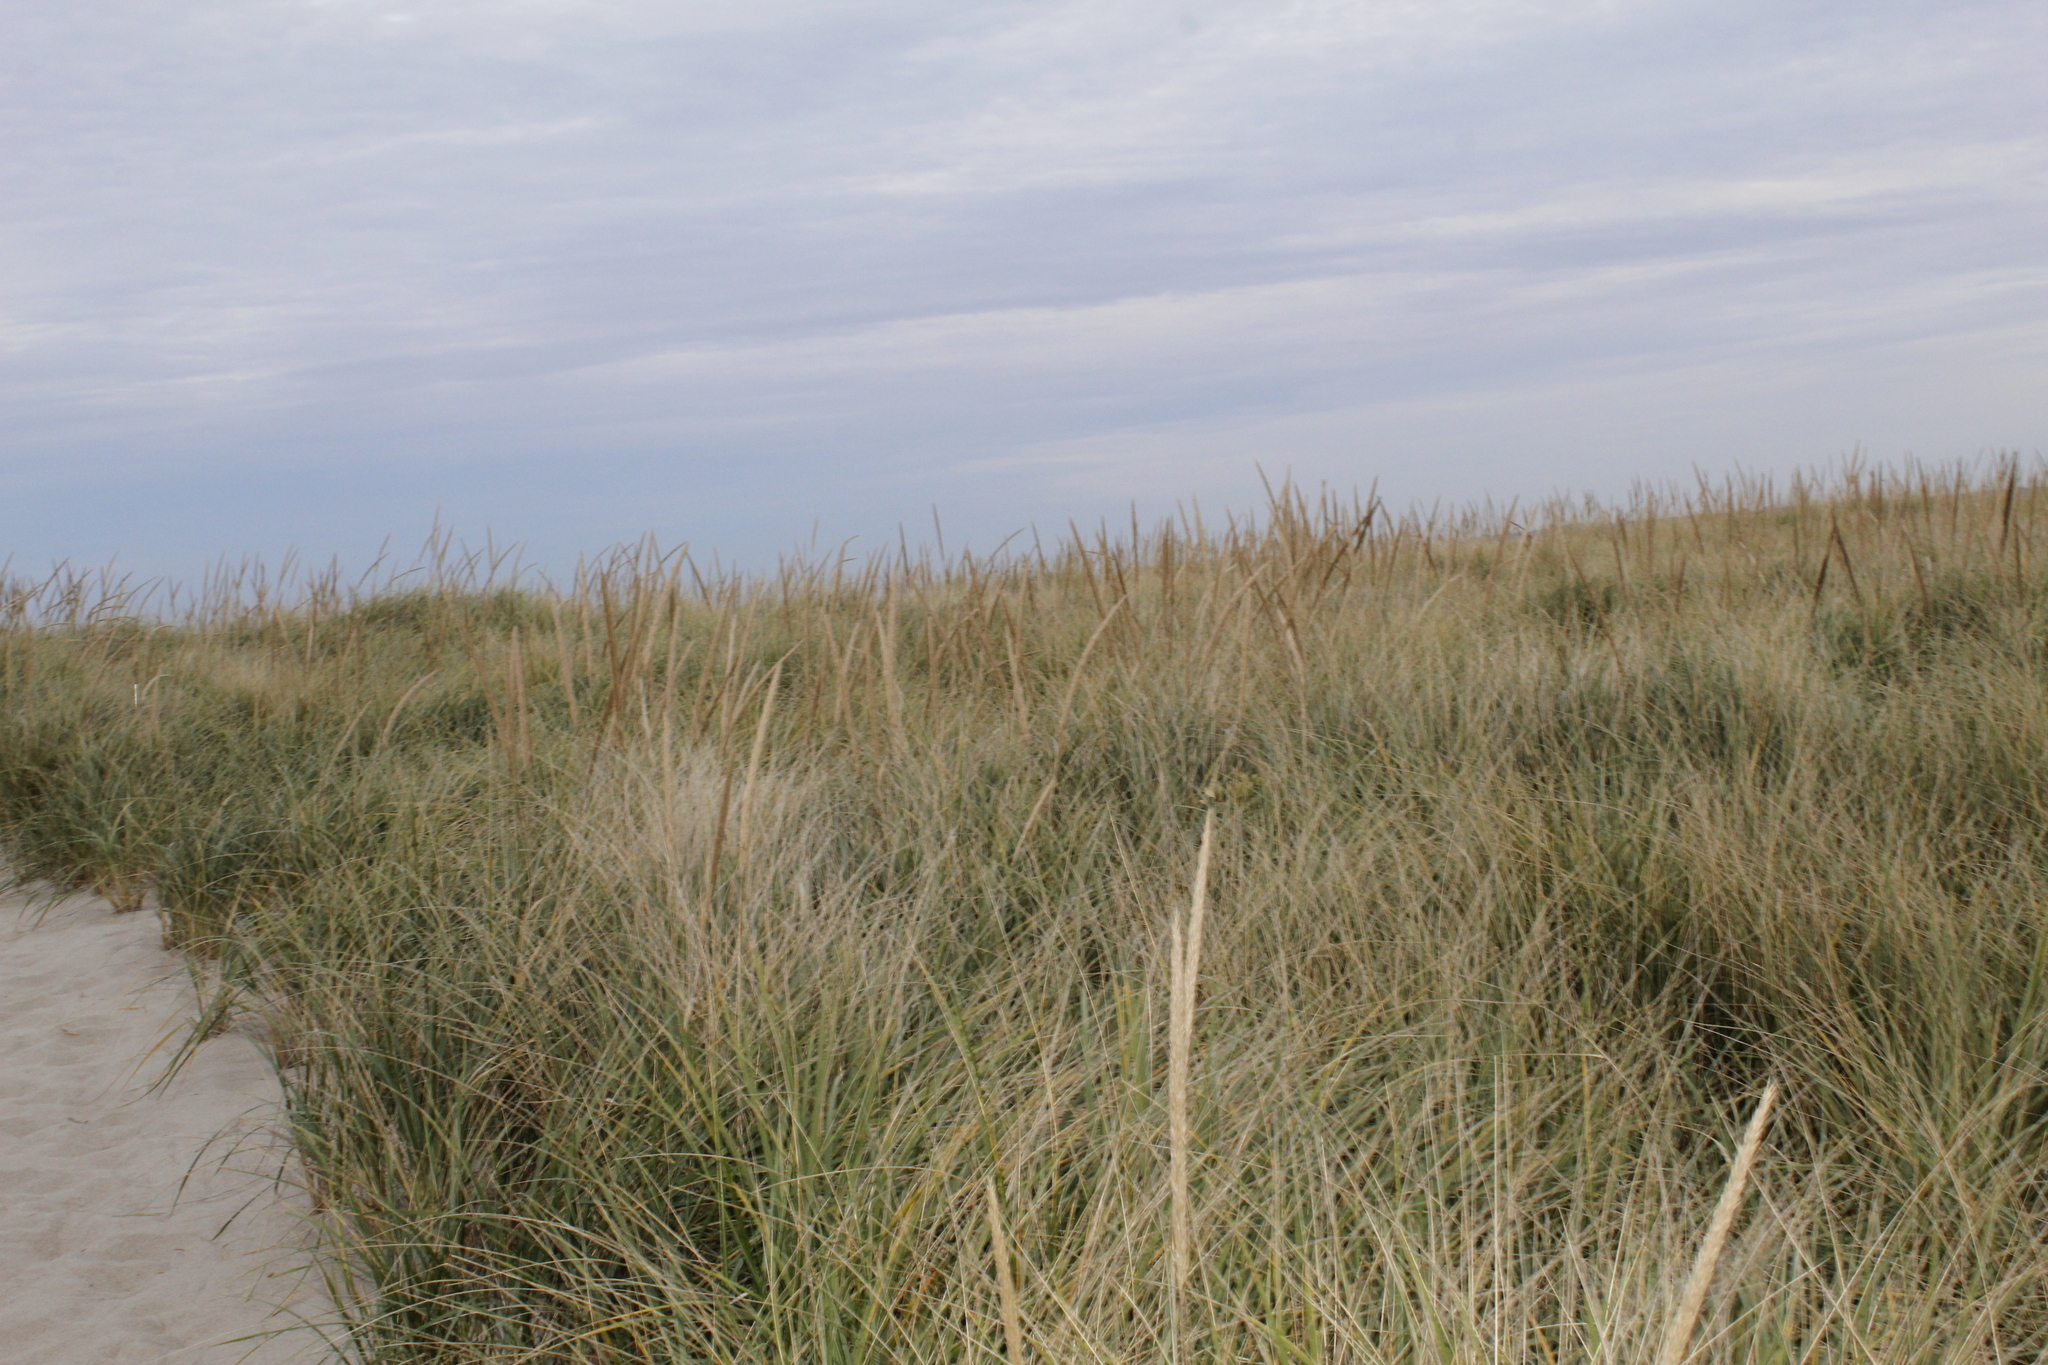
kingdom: Plantae
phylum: Tracheophyta
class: Liliopsida
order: Poales
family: Poaceae
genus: Calamagrostis
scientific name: Calamagrostis breviligulata
